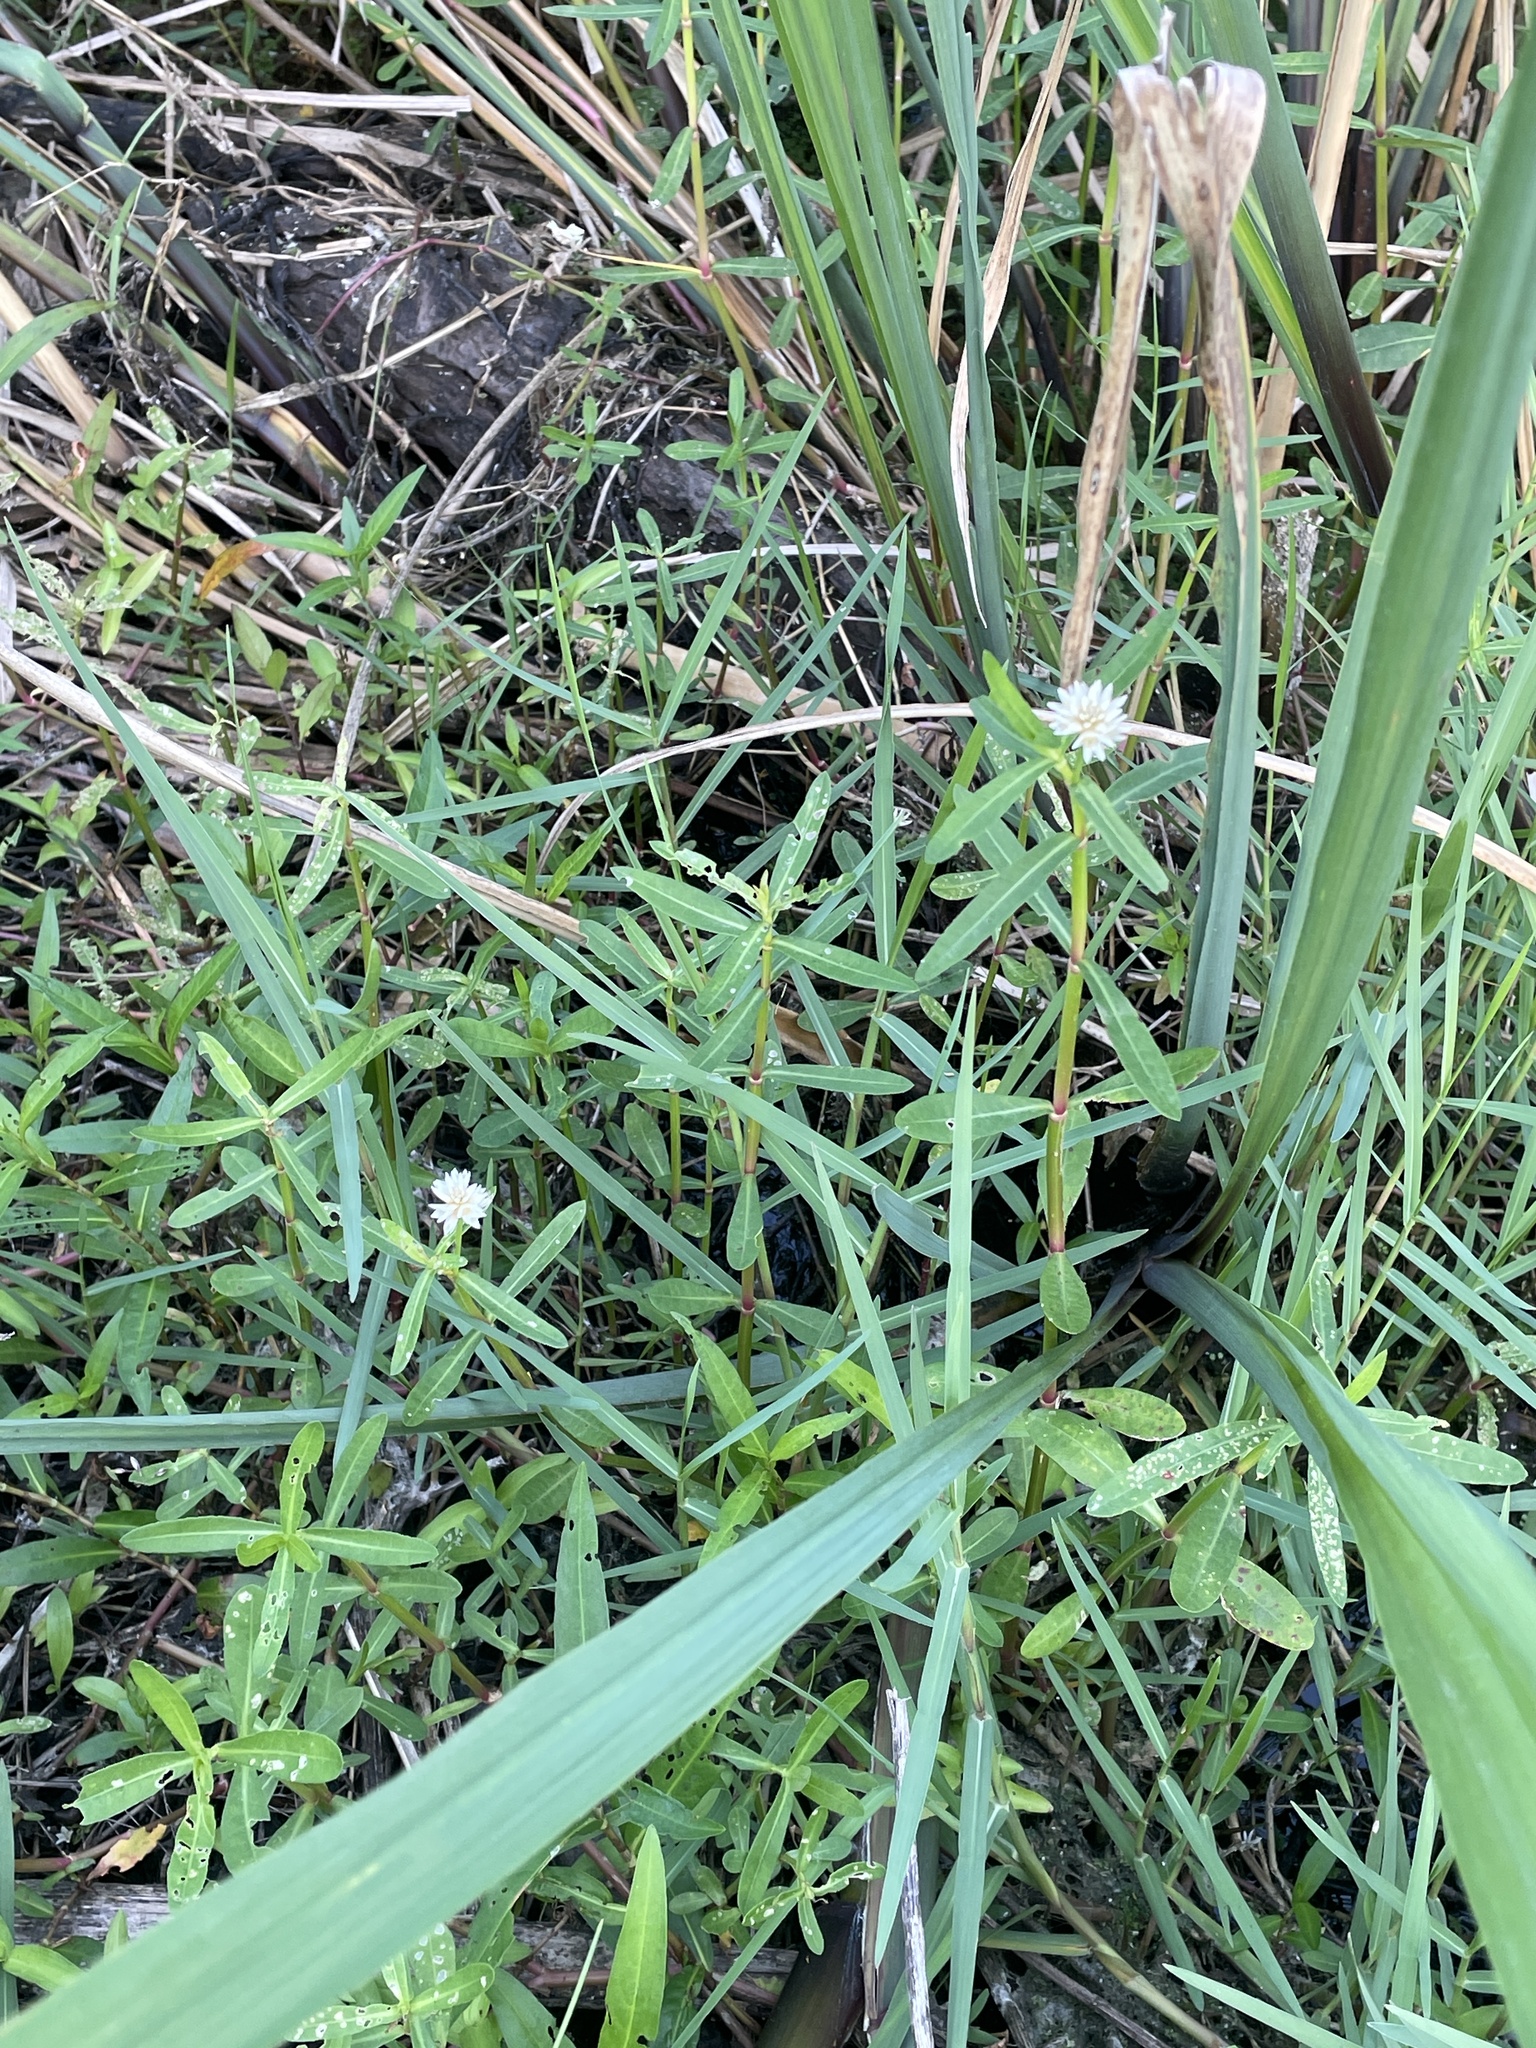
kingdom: Plantae
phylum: Tracheophyta
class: Magnoliopsida
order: Caryophyllales
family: Amaranthaceae
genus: Alternanthera
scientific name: Alternanthera philoxeroides
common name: Alligatorweed
